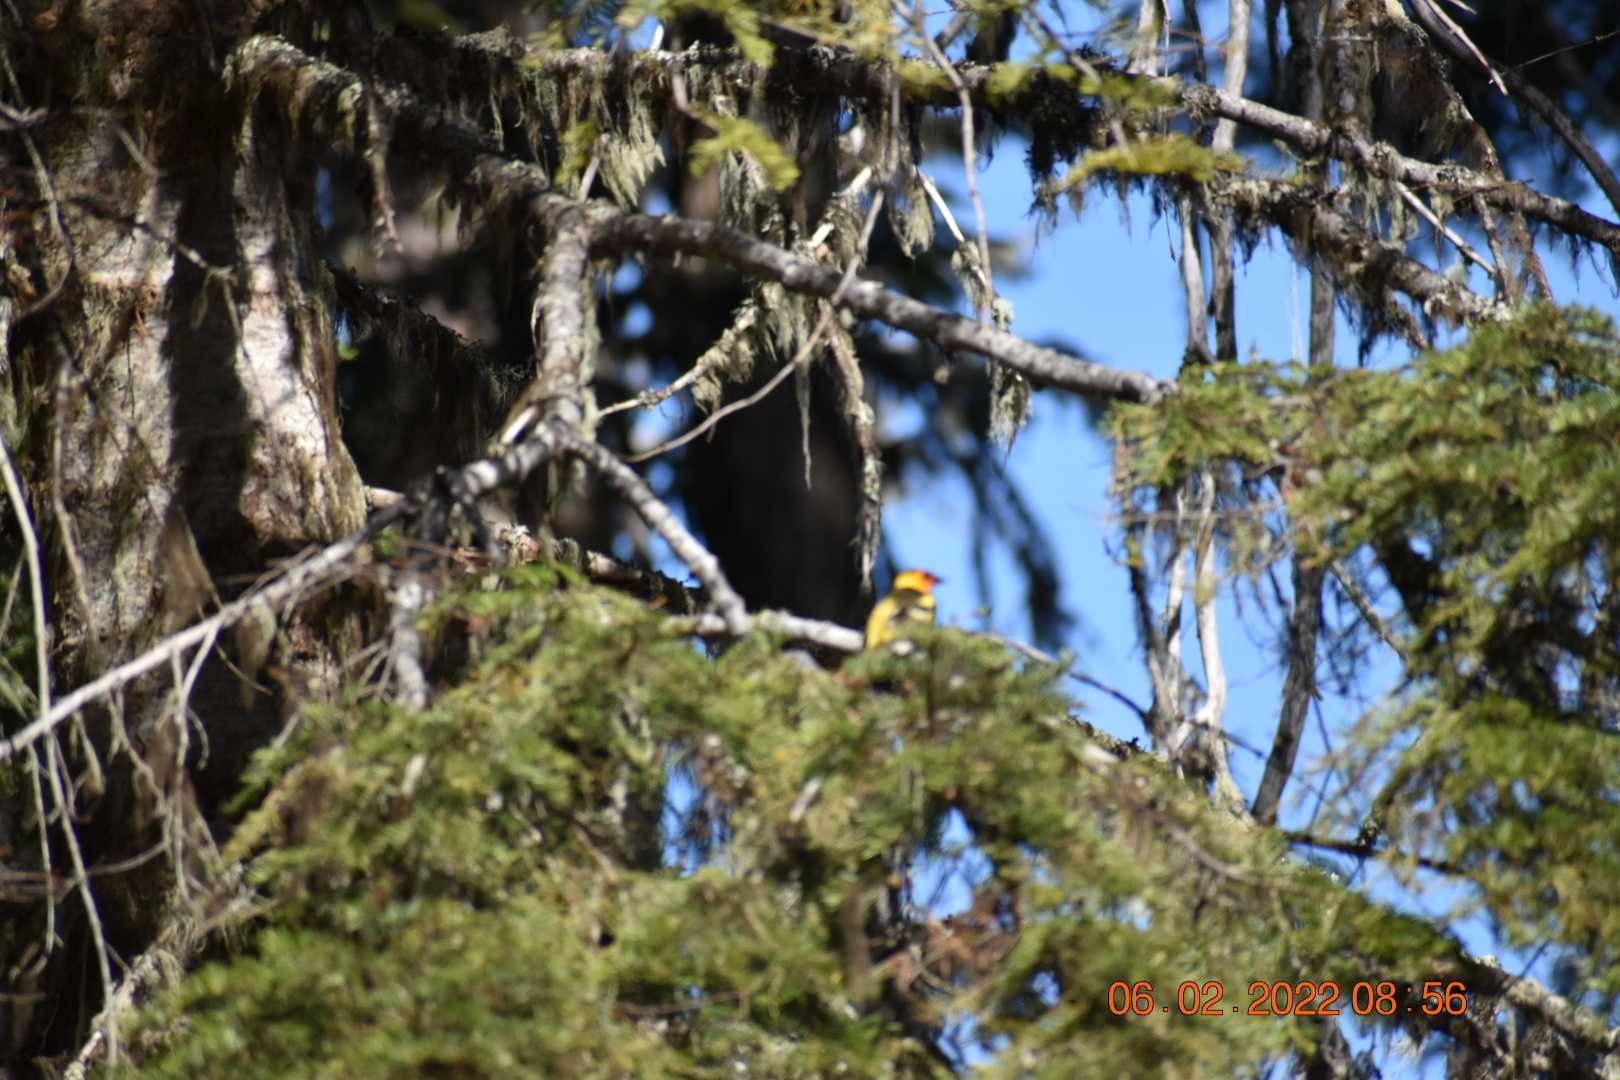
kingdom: Animalia
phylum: Chordata
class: Aves
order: Passeriformes
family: Cardinalidae
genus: Piranga
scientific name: Piranga ludoviciana
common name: Western tanager
